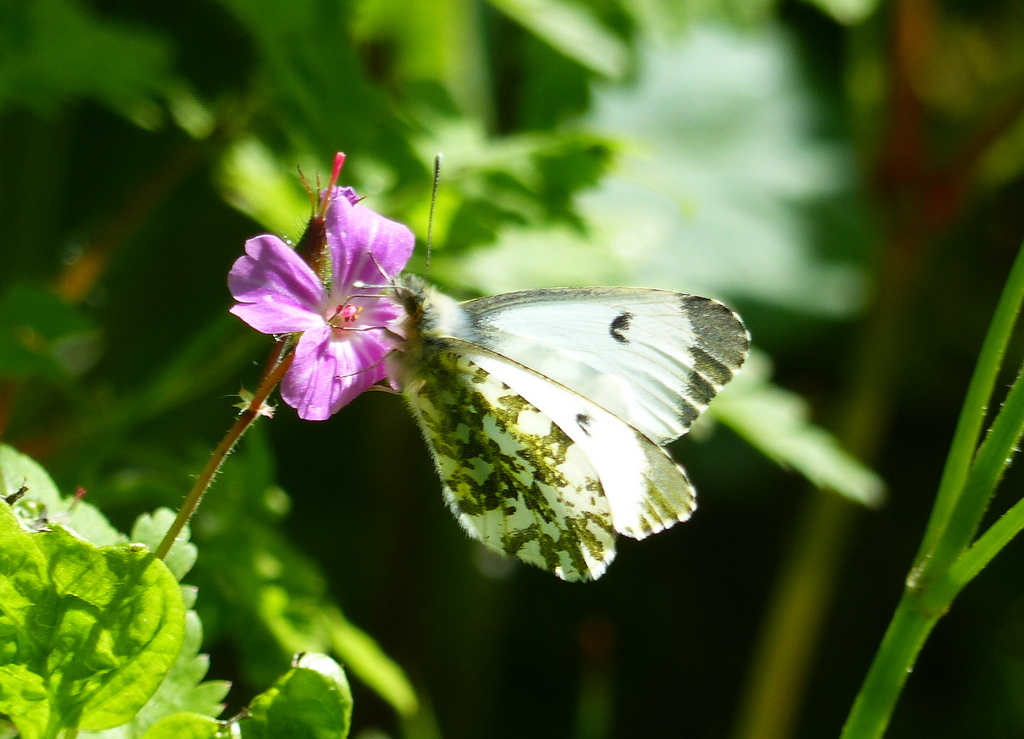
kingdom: Animalia
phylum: Arthropoda
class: Insecta
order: Lepidoptera
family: Pieridae
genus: Anthocharis
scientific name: Anthocharis cardamines
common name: Orange-tip
